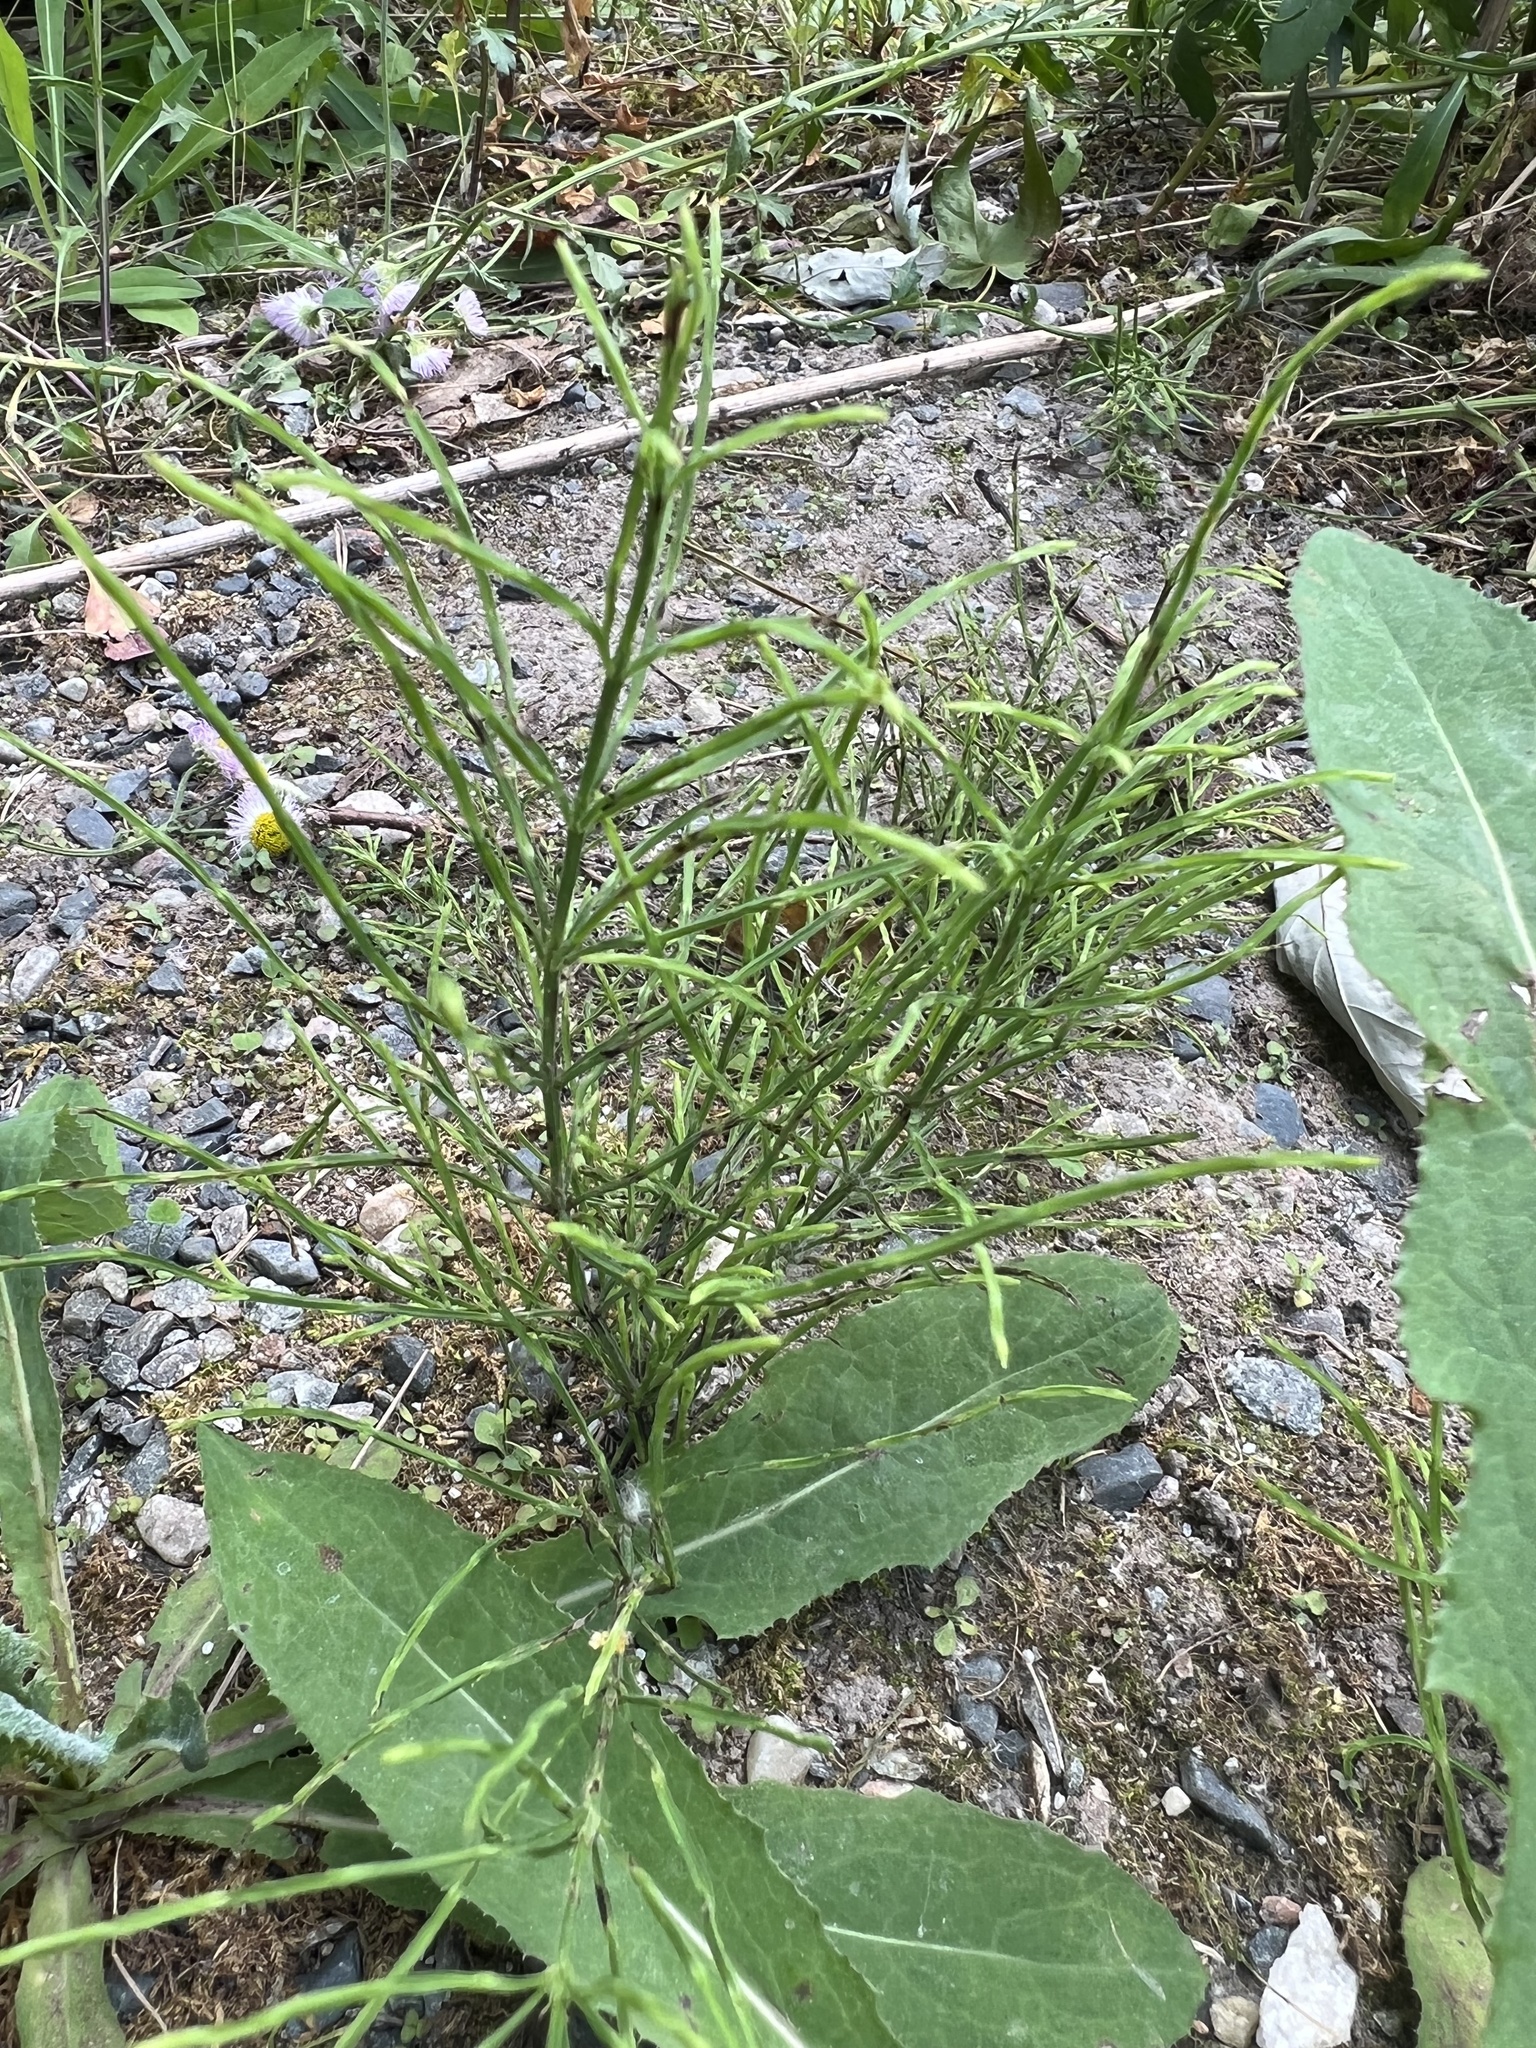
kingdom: Plantae
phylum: Tracheophyta
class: Polypodiopsida
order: Equisetales
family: Equisetaceae
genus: Equisetum
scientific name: Equisetum arvense
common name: Field horsetail
